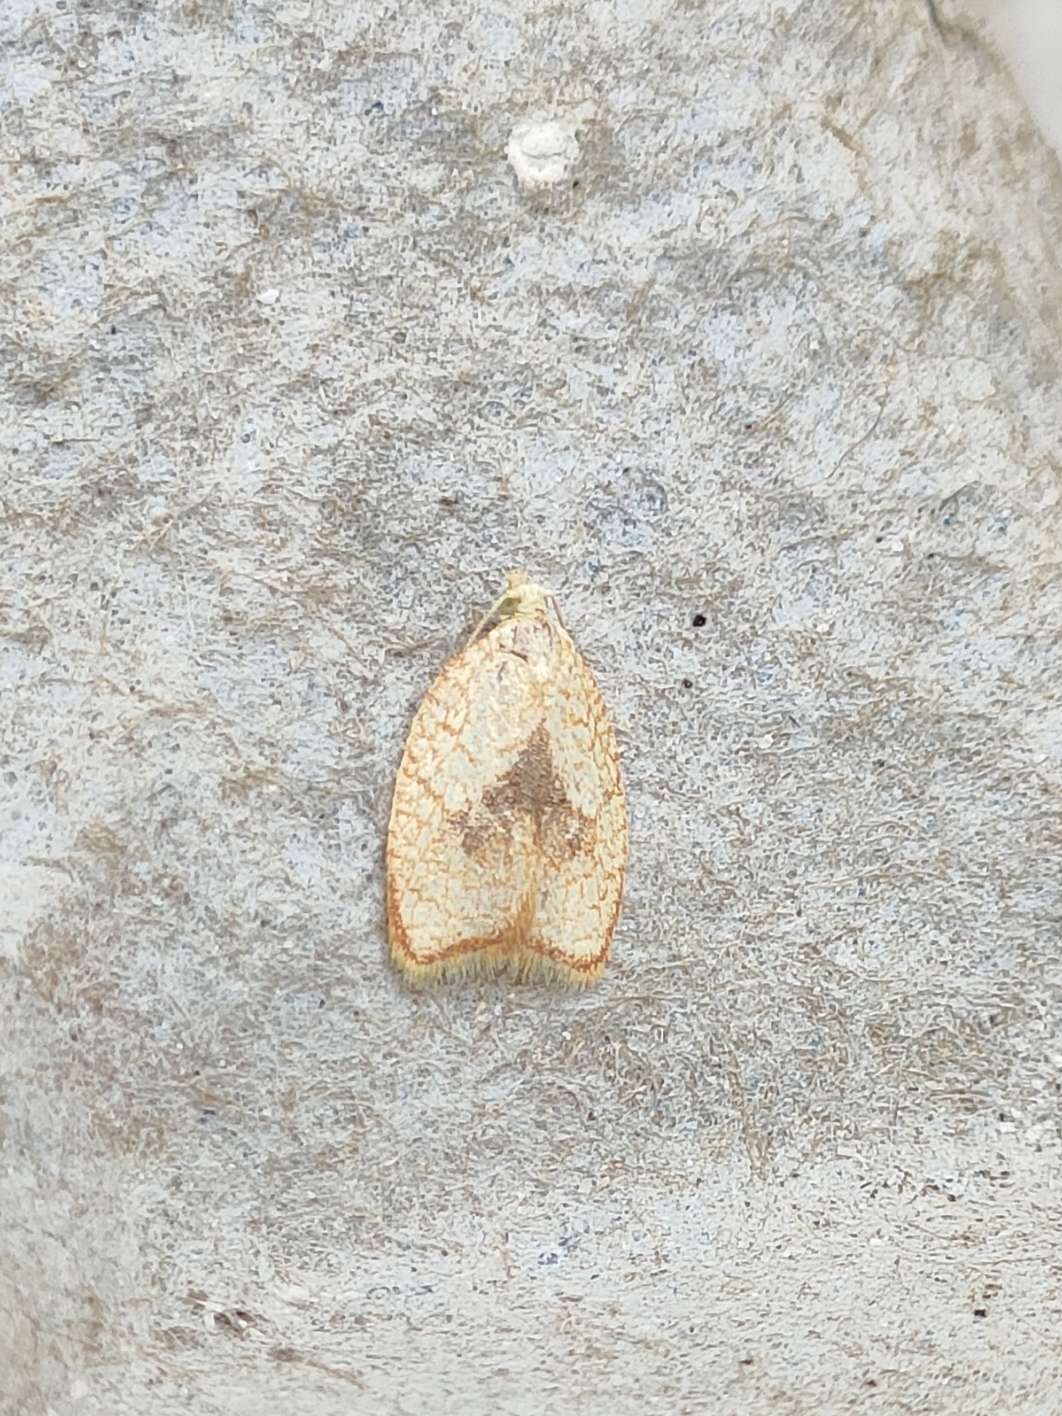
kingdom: Animalia
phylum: Arthropoda
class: Insecta
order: Lepidoptera
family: Tortricidae
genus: Acleris
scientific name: Acleris forsskaleana
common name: Maple button
